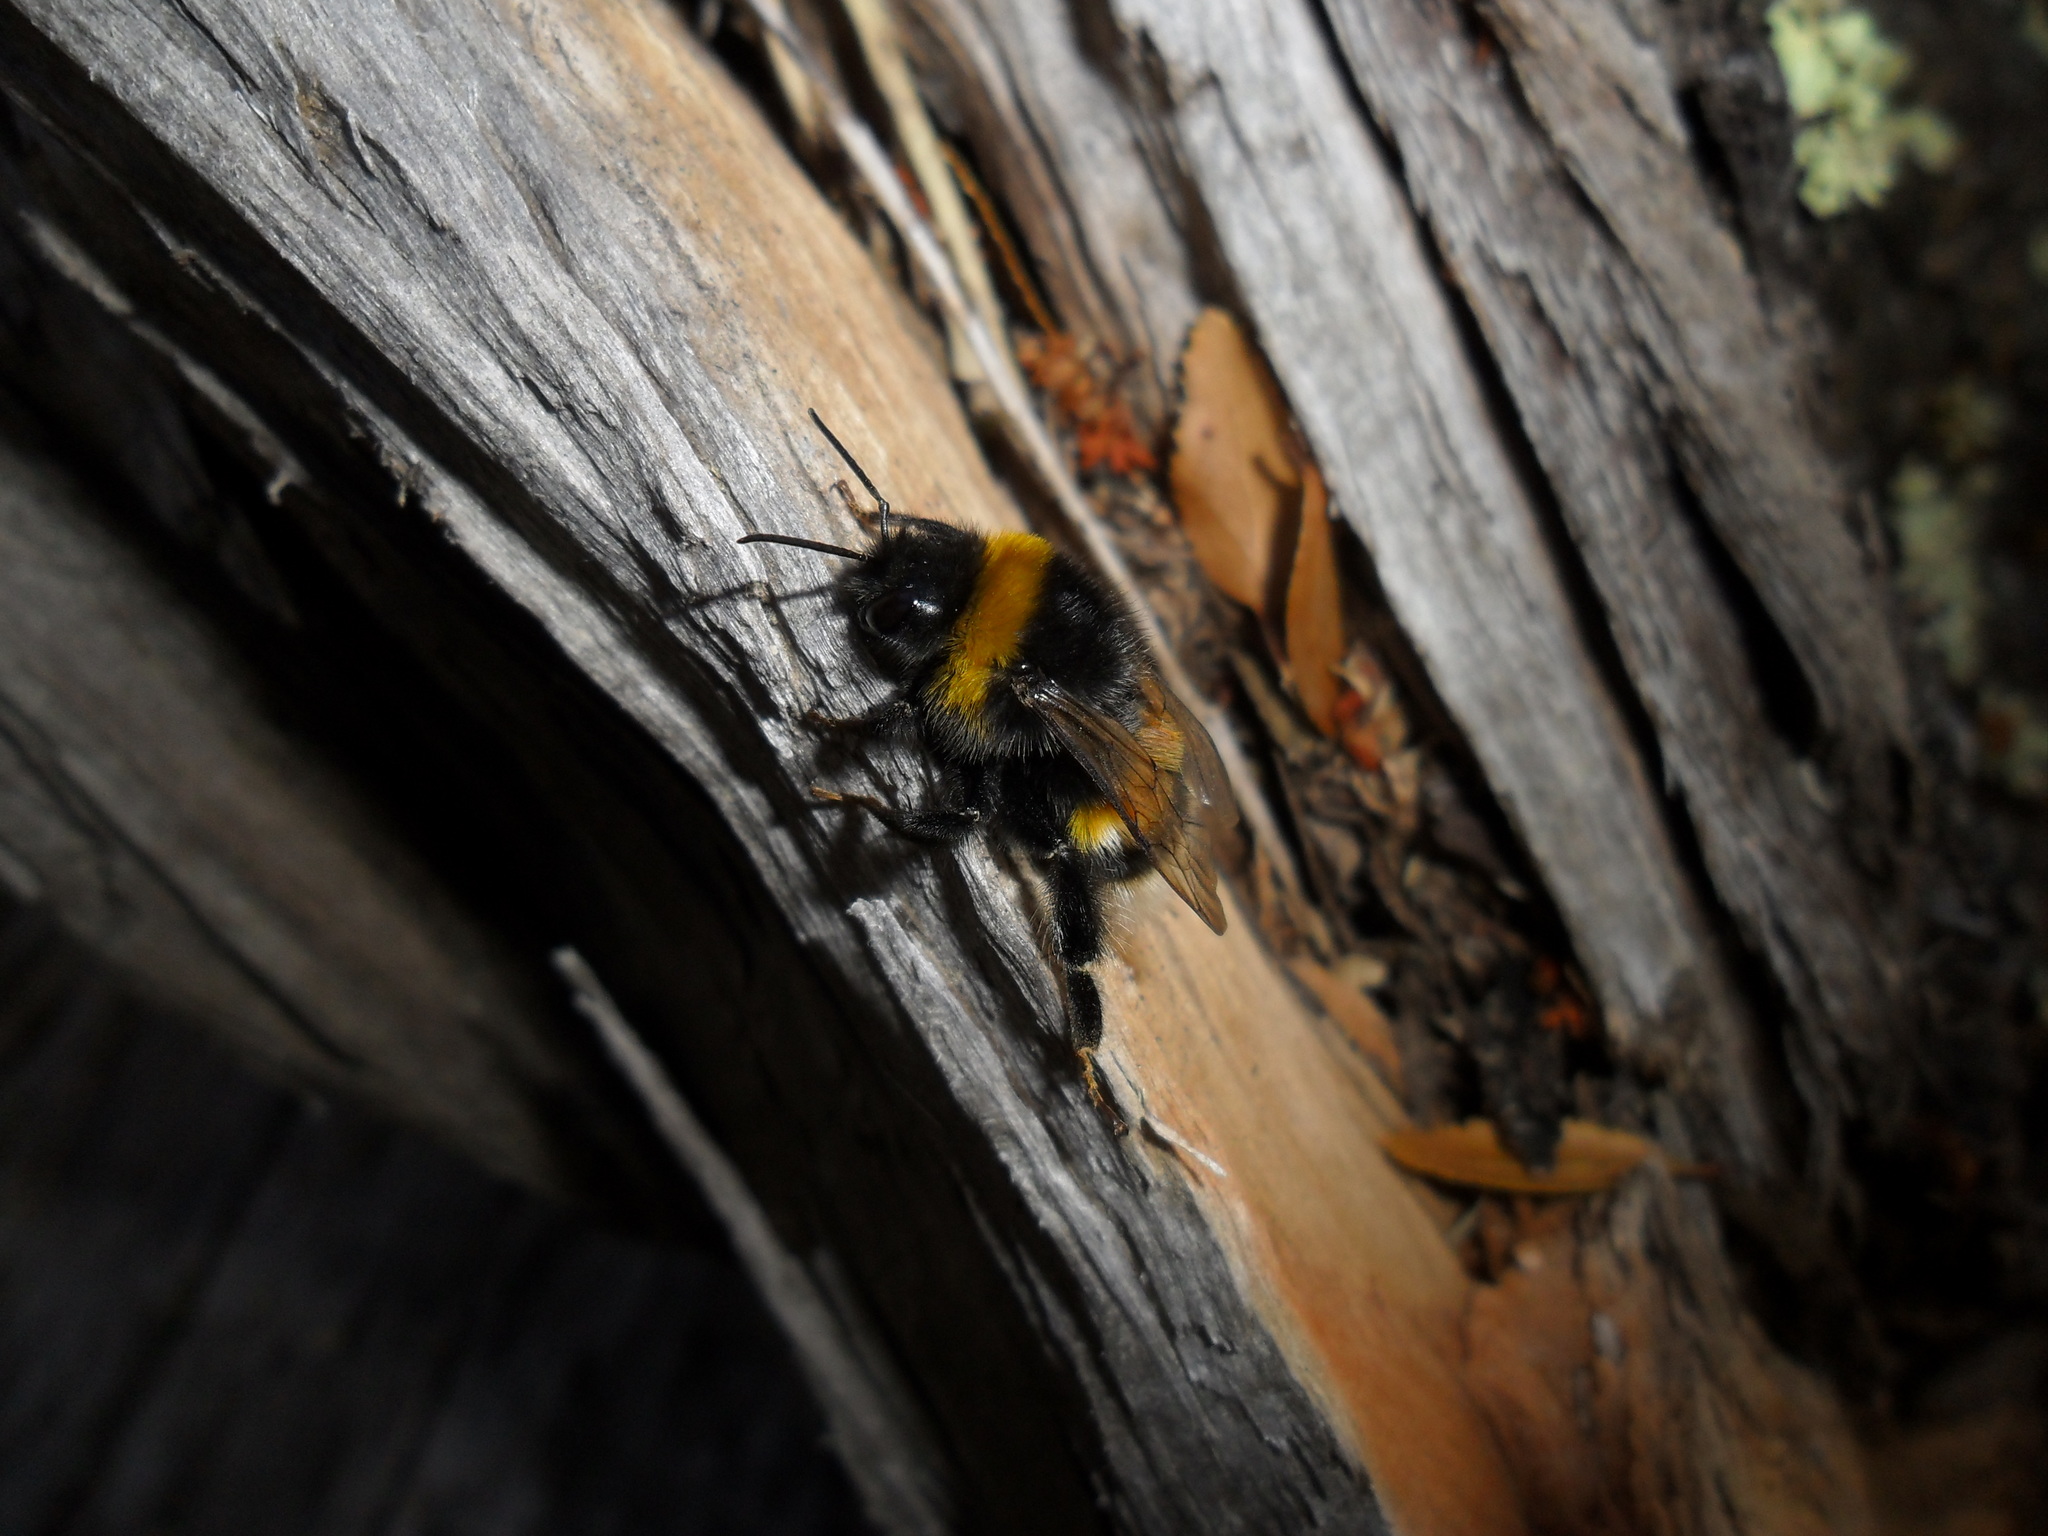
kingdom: Animalia
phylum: Arthropoda
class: Insecta
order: Hymenoptera
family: Apidae
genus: Bombus
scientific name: Bombus terrestris
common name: Buff-tailed bumblebee
